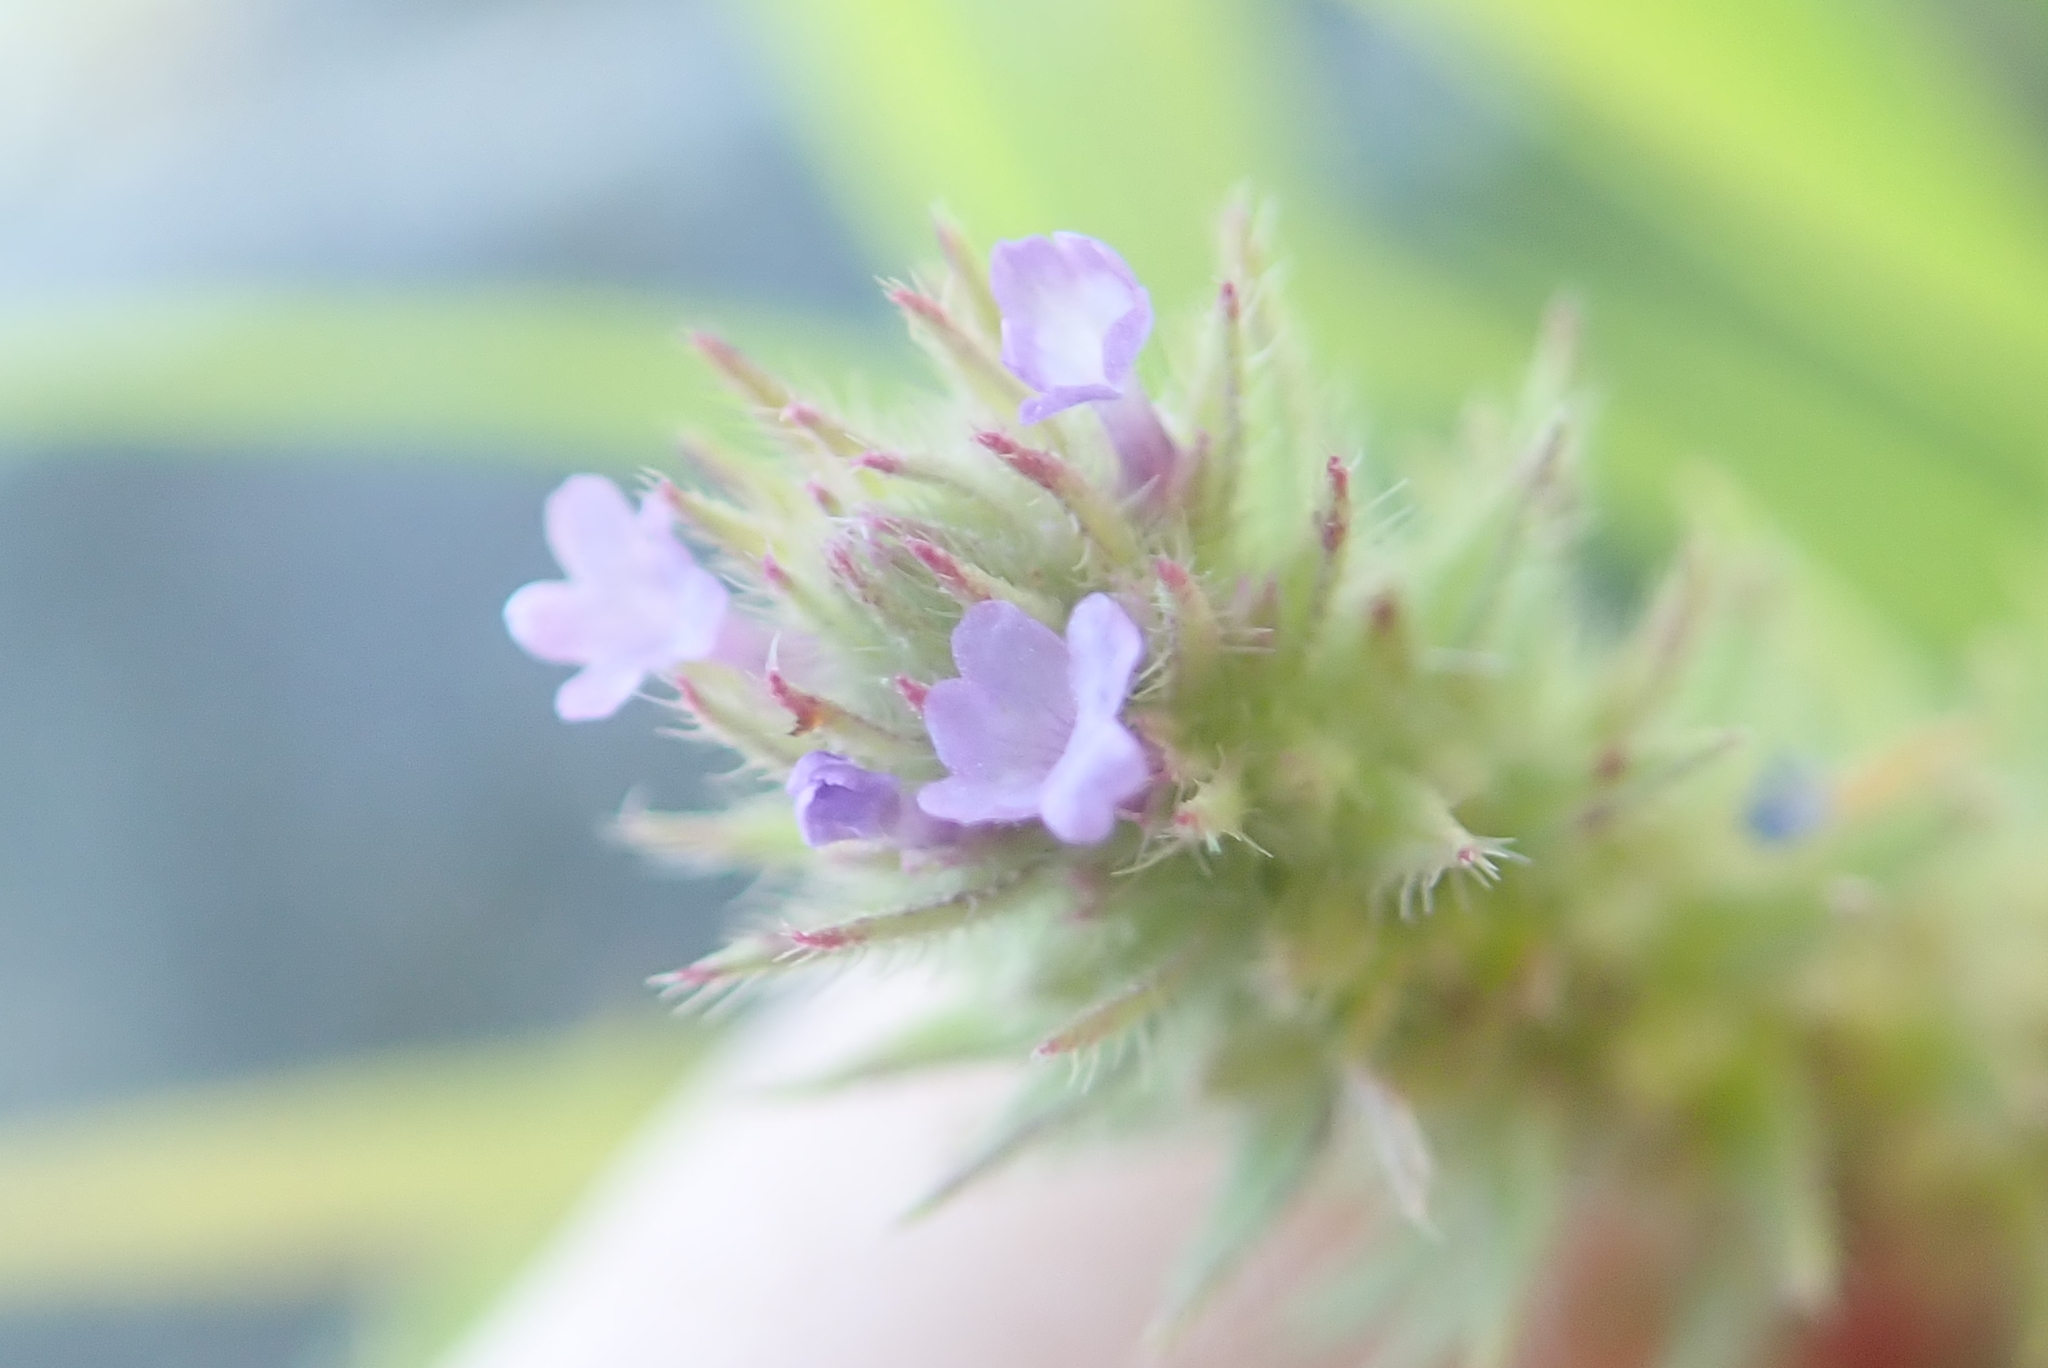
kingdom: Plantae
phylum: Tracheophyta
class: Magnoliopsida
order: Lamiales
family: Verbenaceae
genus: Verbena
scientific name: Verbena bracteata
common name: Bracted vervain
